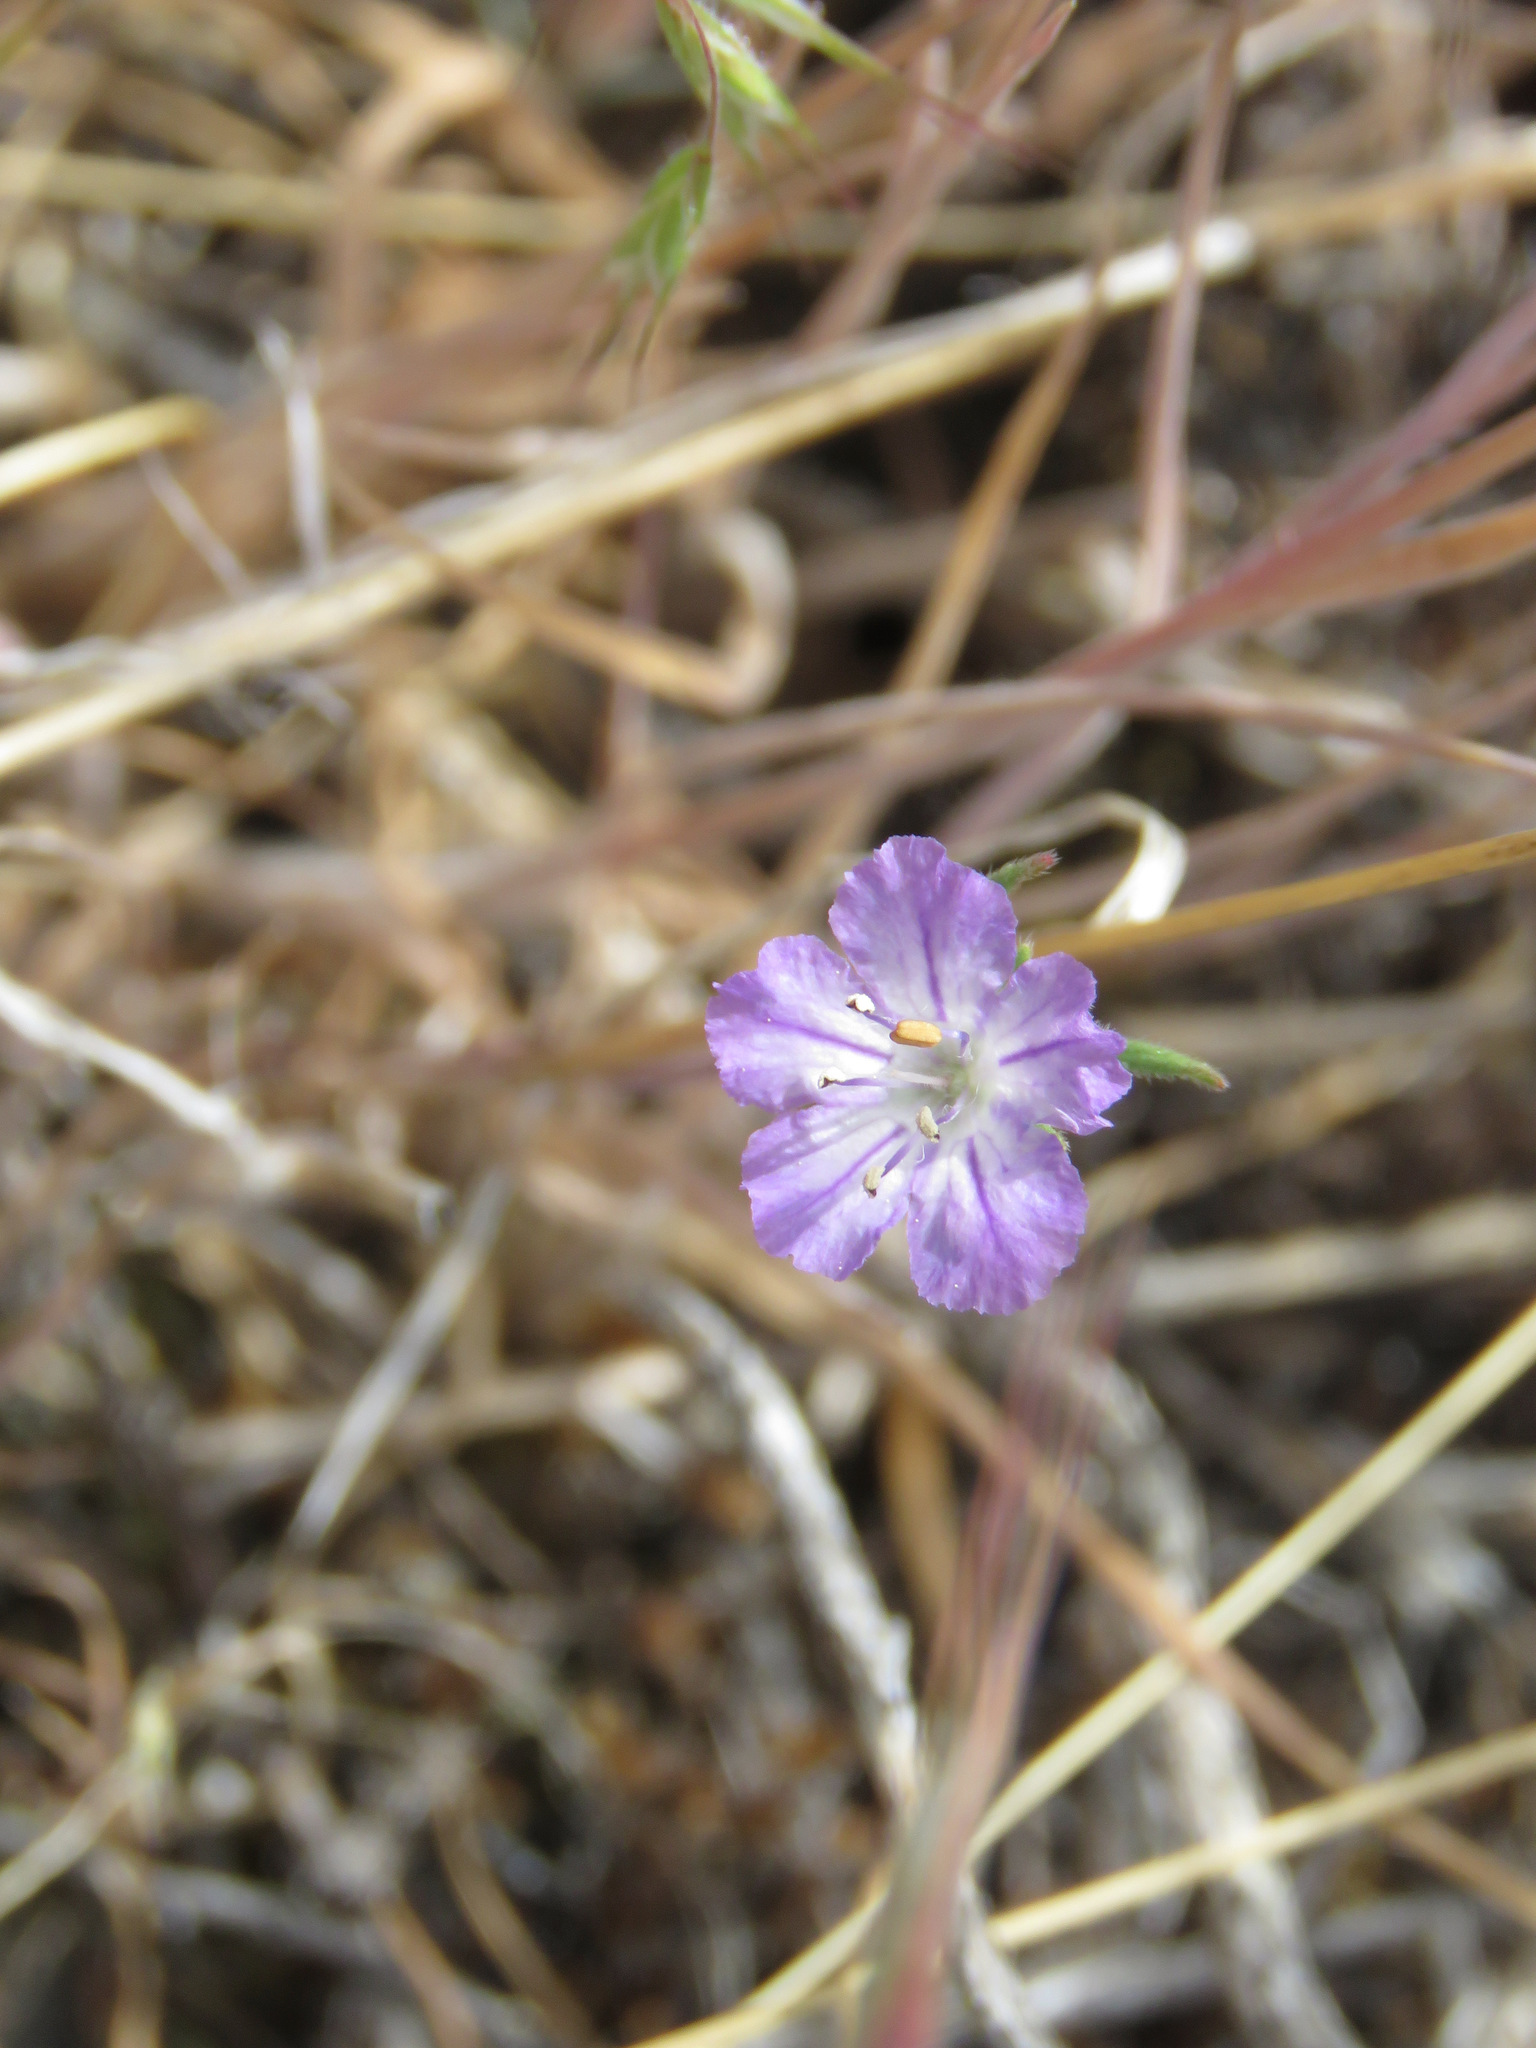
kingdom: Plantae
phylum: Tracheophyta
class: Magnoliopsida
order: Boraginales
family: Hydrophyllaceae
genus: Phacelia
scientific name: Phacelia linearis
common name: Linear-leaved phacelia
